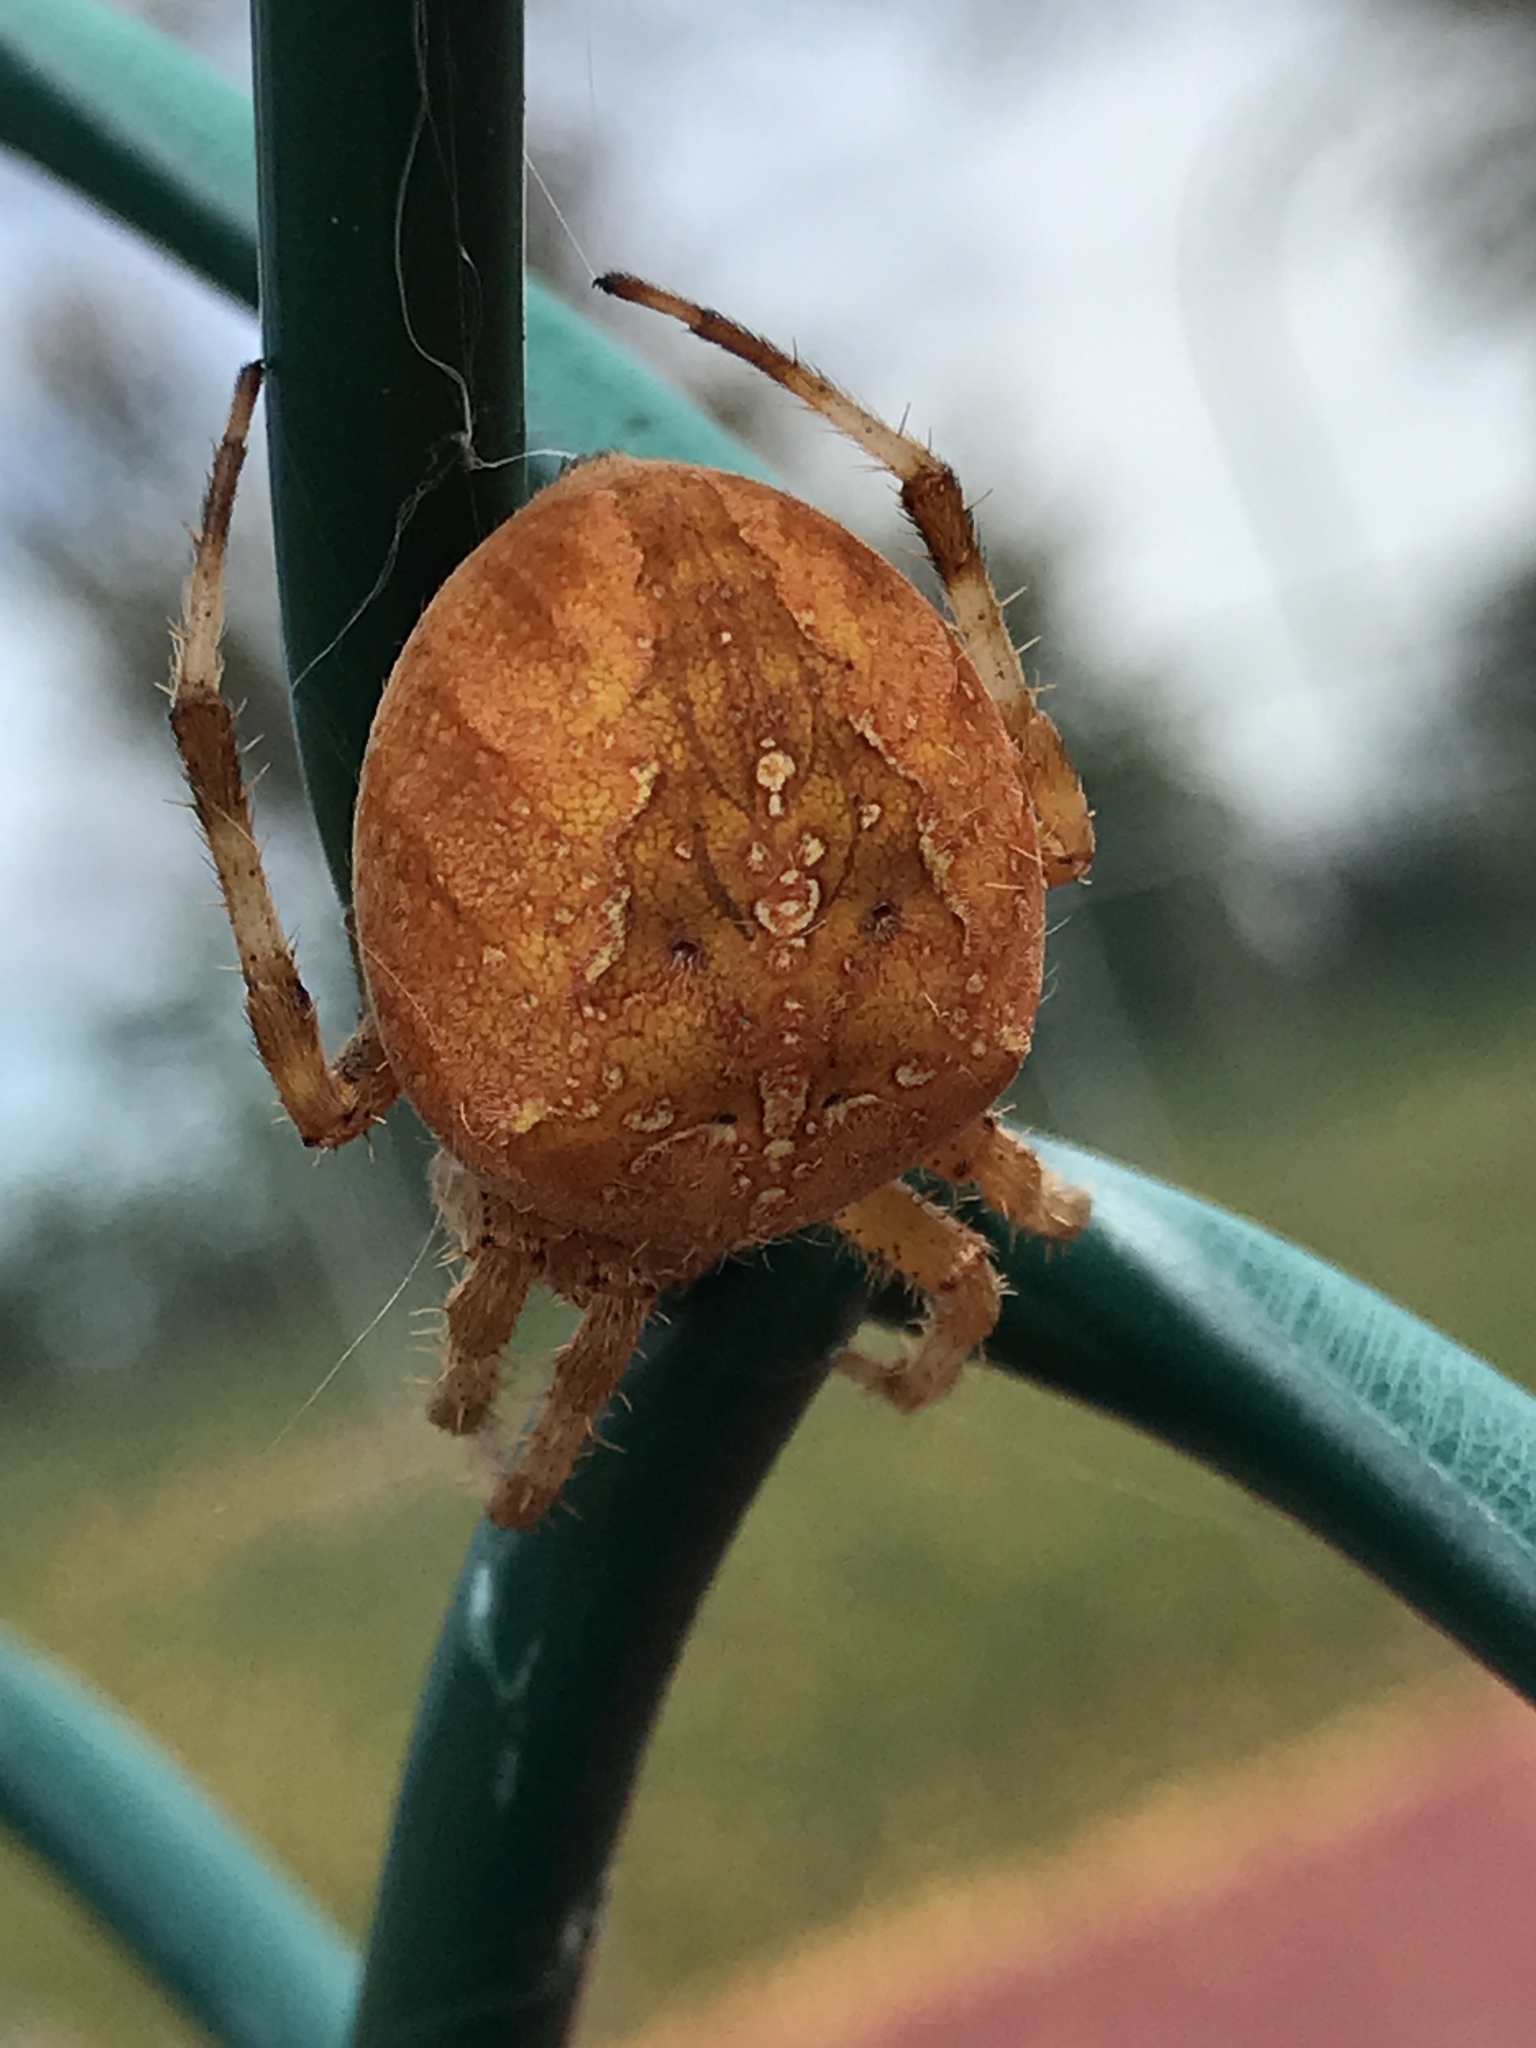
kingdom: Animalia
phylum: Arthropoda
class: Arachnida
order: Araneae
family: Araneidae
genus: Araneus
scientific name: Araneus diadematus
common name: Cross orbweaver
